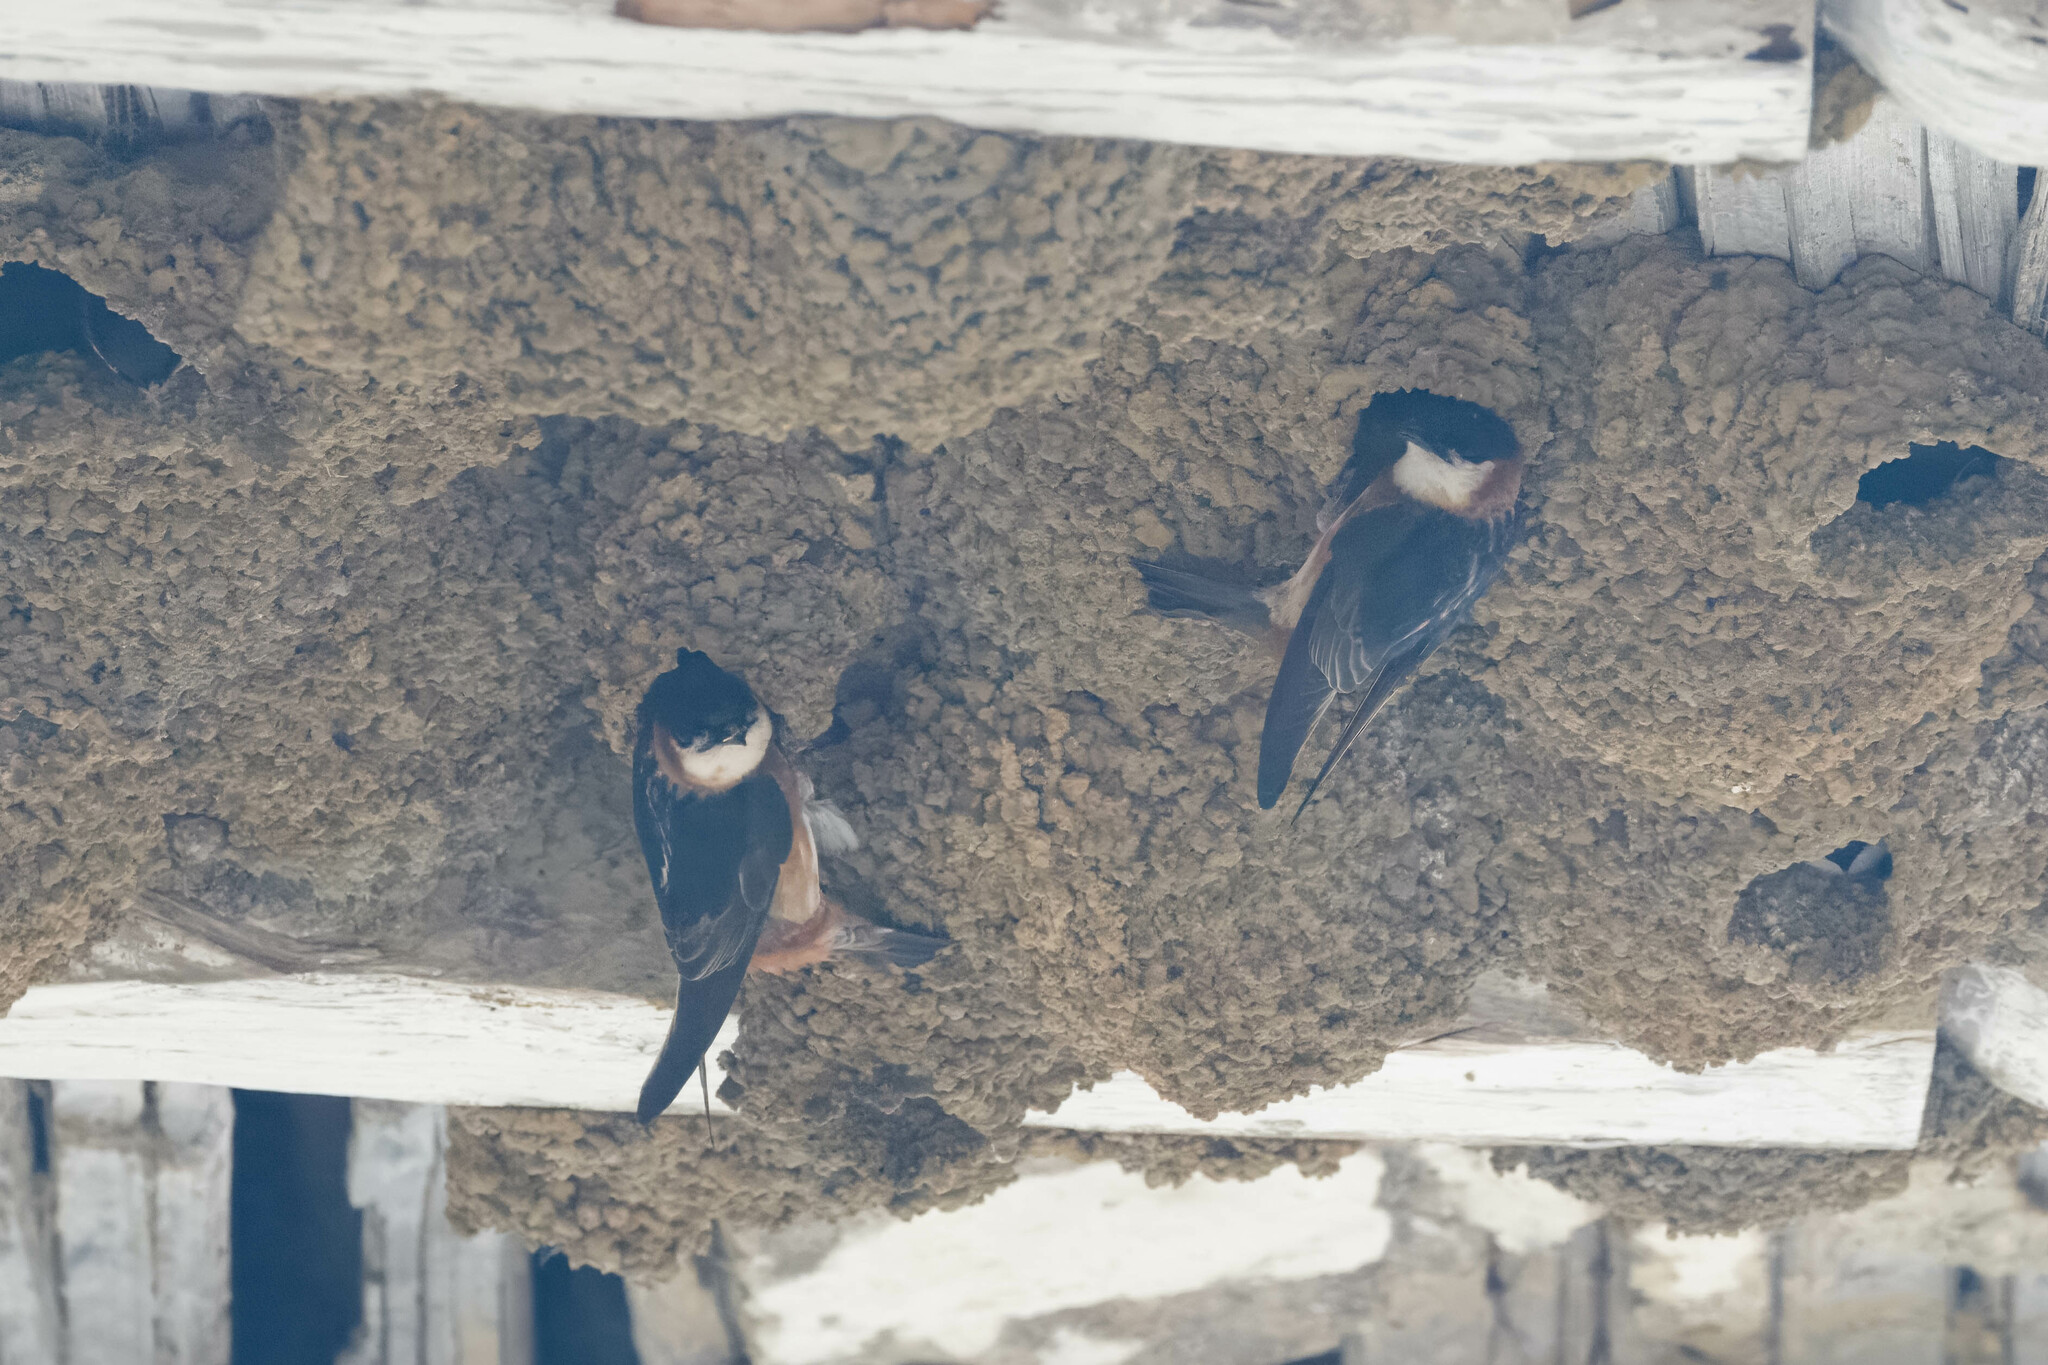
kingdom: Animalia
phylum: Chordata
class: Aves
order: Passeriformes
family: Hirundinidae
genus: Petrochelidon
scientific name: Petrochelidon rufocollaris
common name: Chestnut-collared swallow
